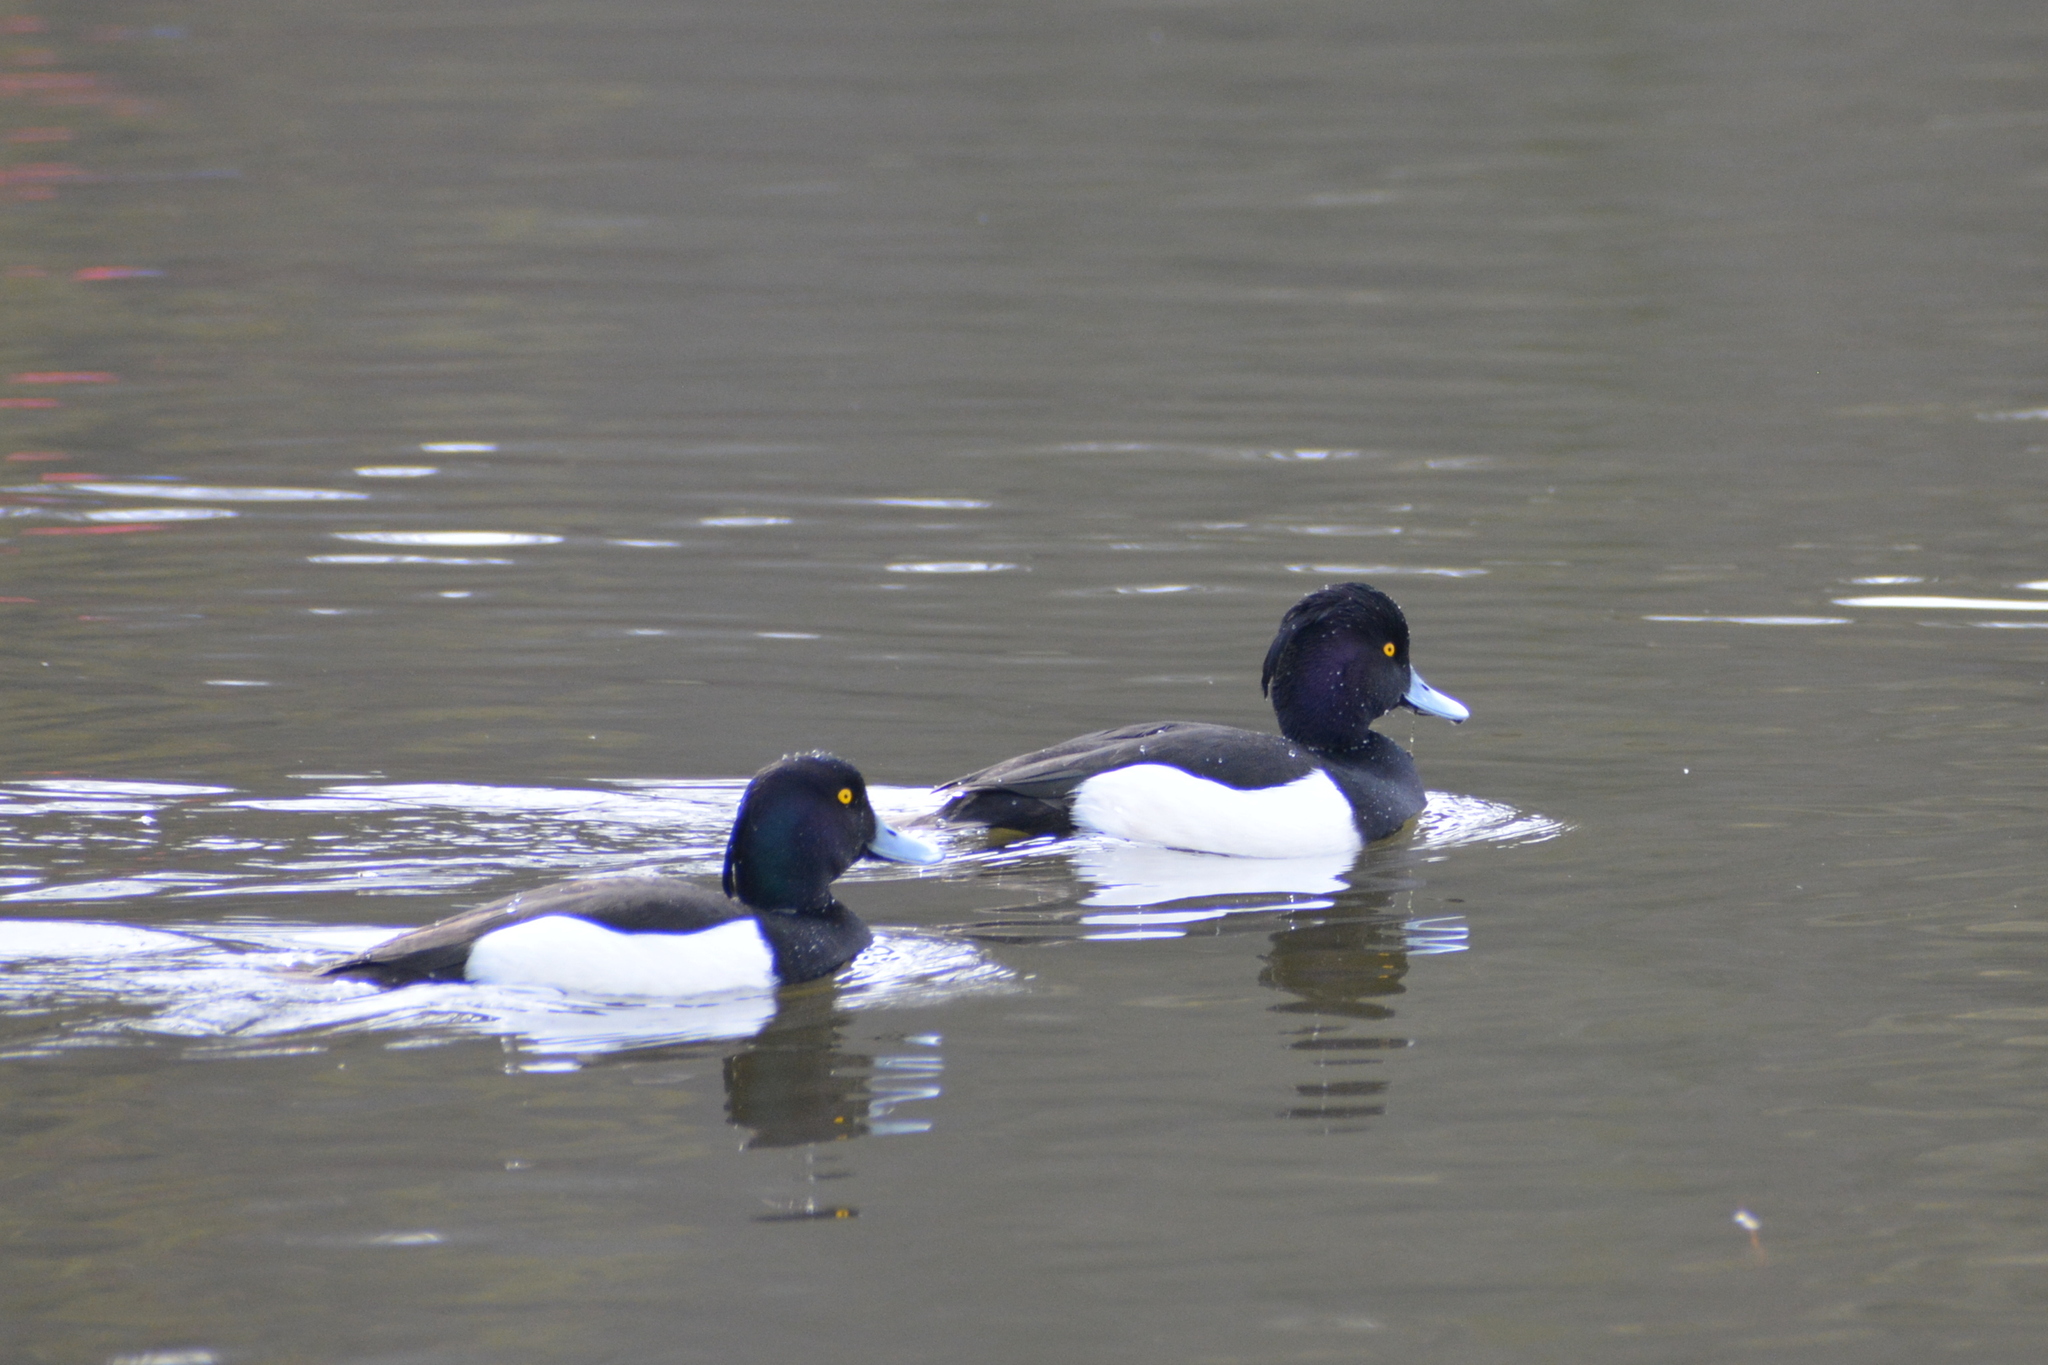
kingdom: Animalia
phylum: Chordata
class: Aves
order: Anseriformes
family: Anatidae
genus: Aythya
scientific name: Aythya fuligula
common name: Tufted duck
